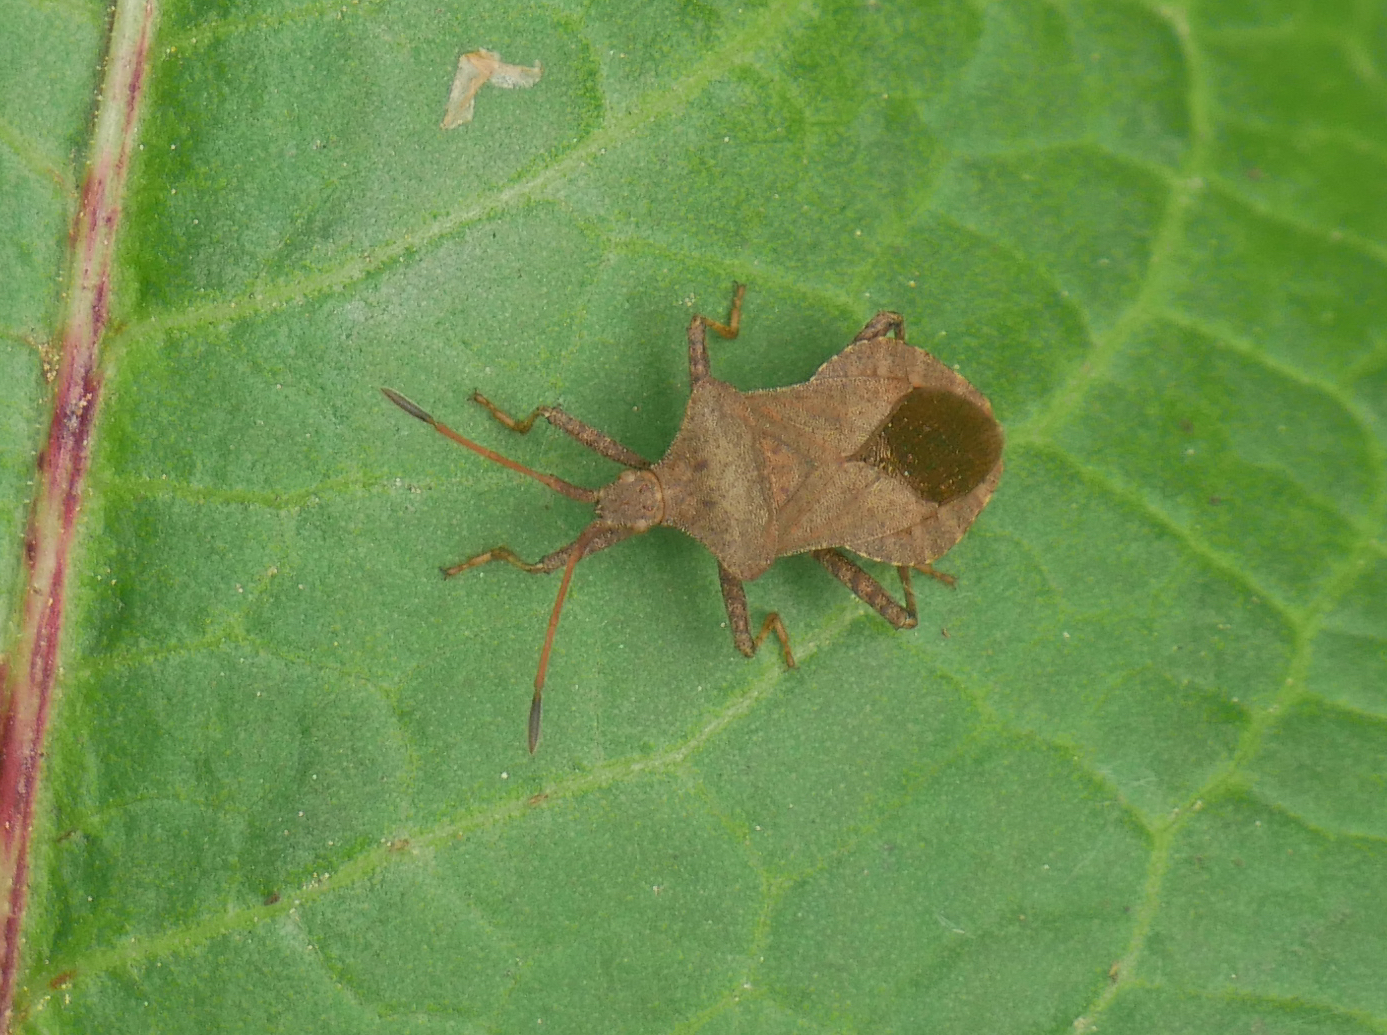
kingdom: Animalia
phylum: Arthropoda
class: Insecta
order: Hemiptera
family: Coreidae
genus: Coreus
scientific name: Coreus marginatus
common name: Dock bug
